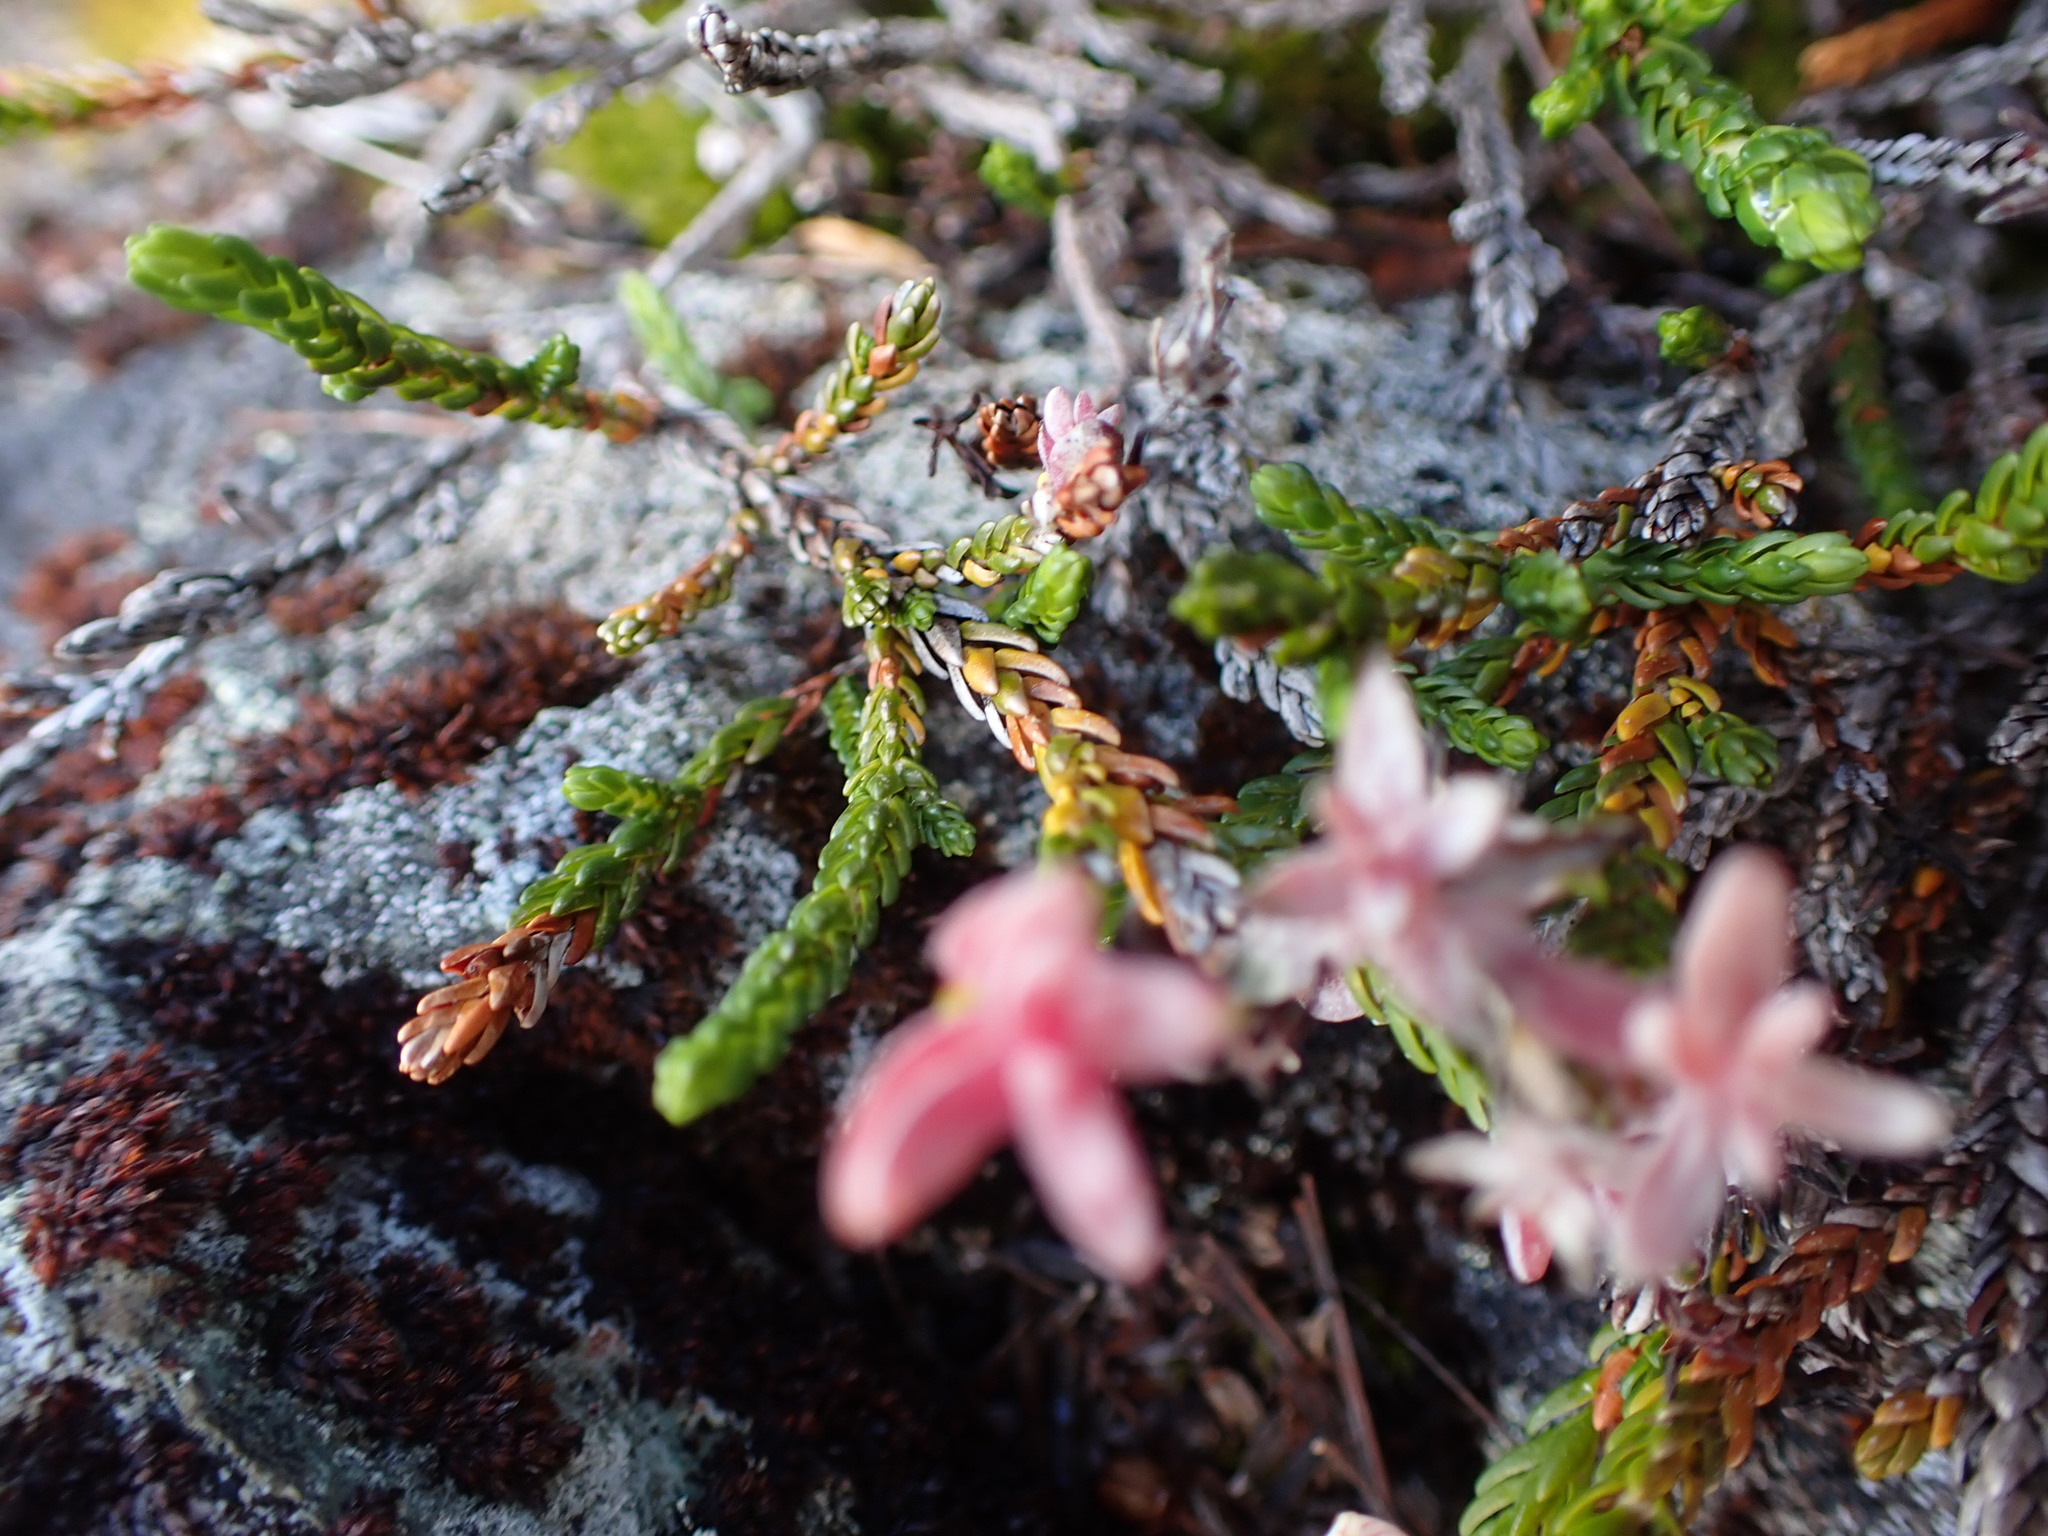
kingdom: Fungi
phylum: Basidiomycota
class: Exobasidiomycetes
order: Exobasidiales
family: Exobasidiaceae
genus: Exobasidium
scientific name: Exobasidium cassiopes
